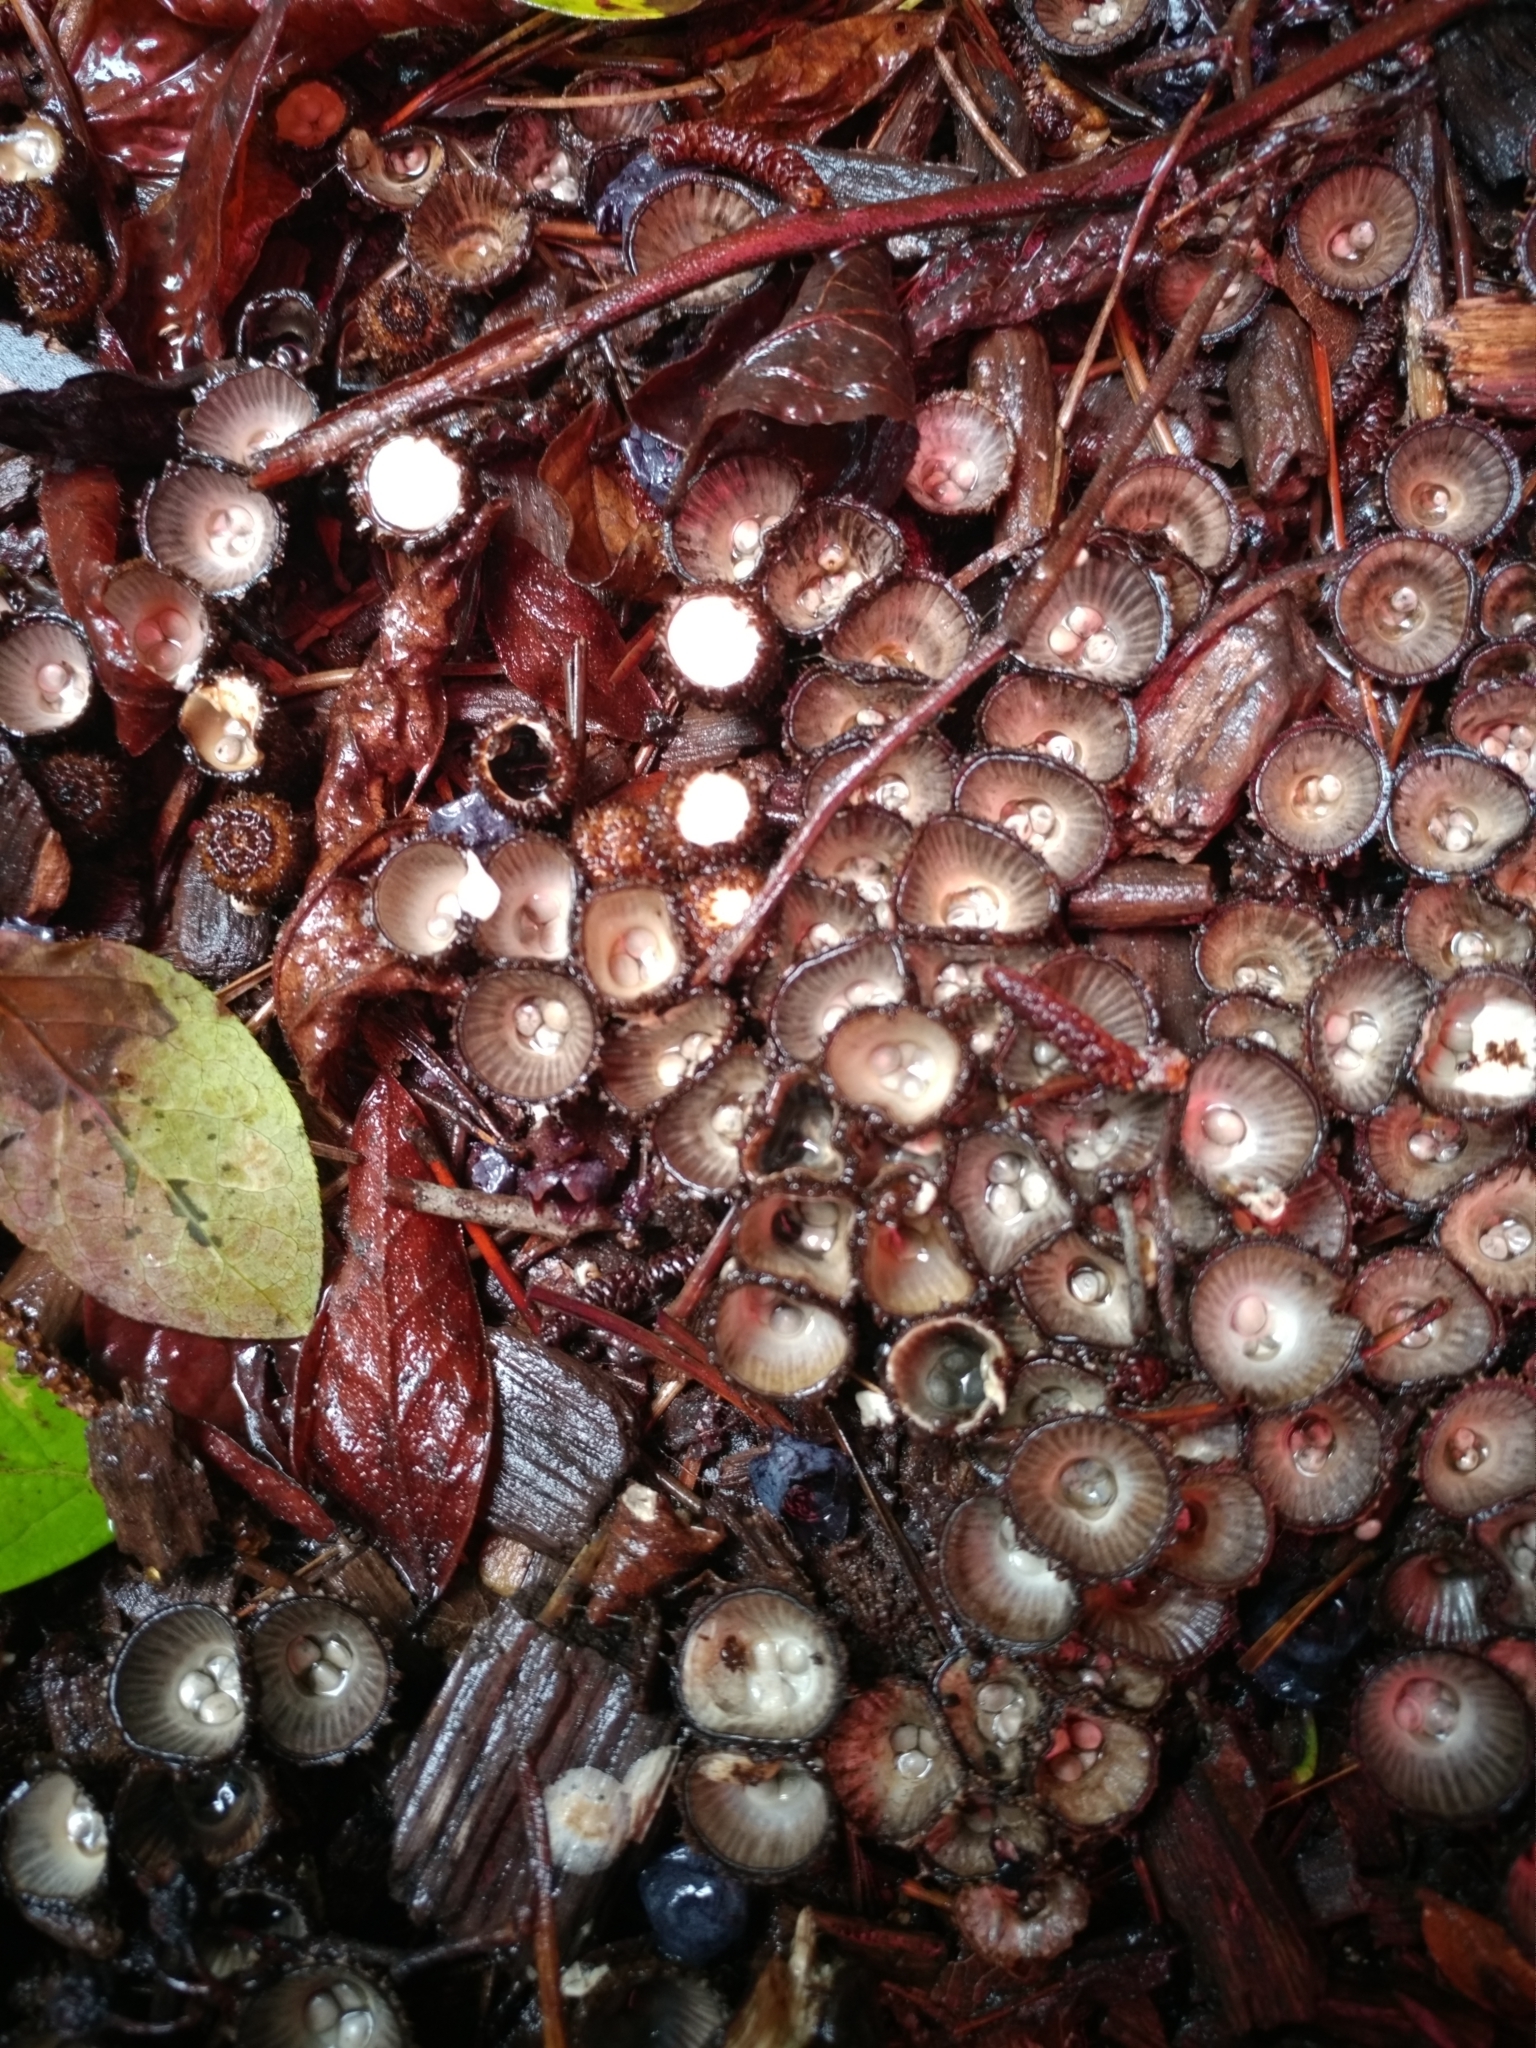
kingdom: Fungi
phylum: Basidiomycota
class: Agaricomycetes
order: Agaricales
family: Agaricaceae
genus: Cyathus
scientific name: Cyathus striatus
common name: Fluted bird's nest
